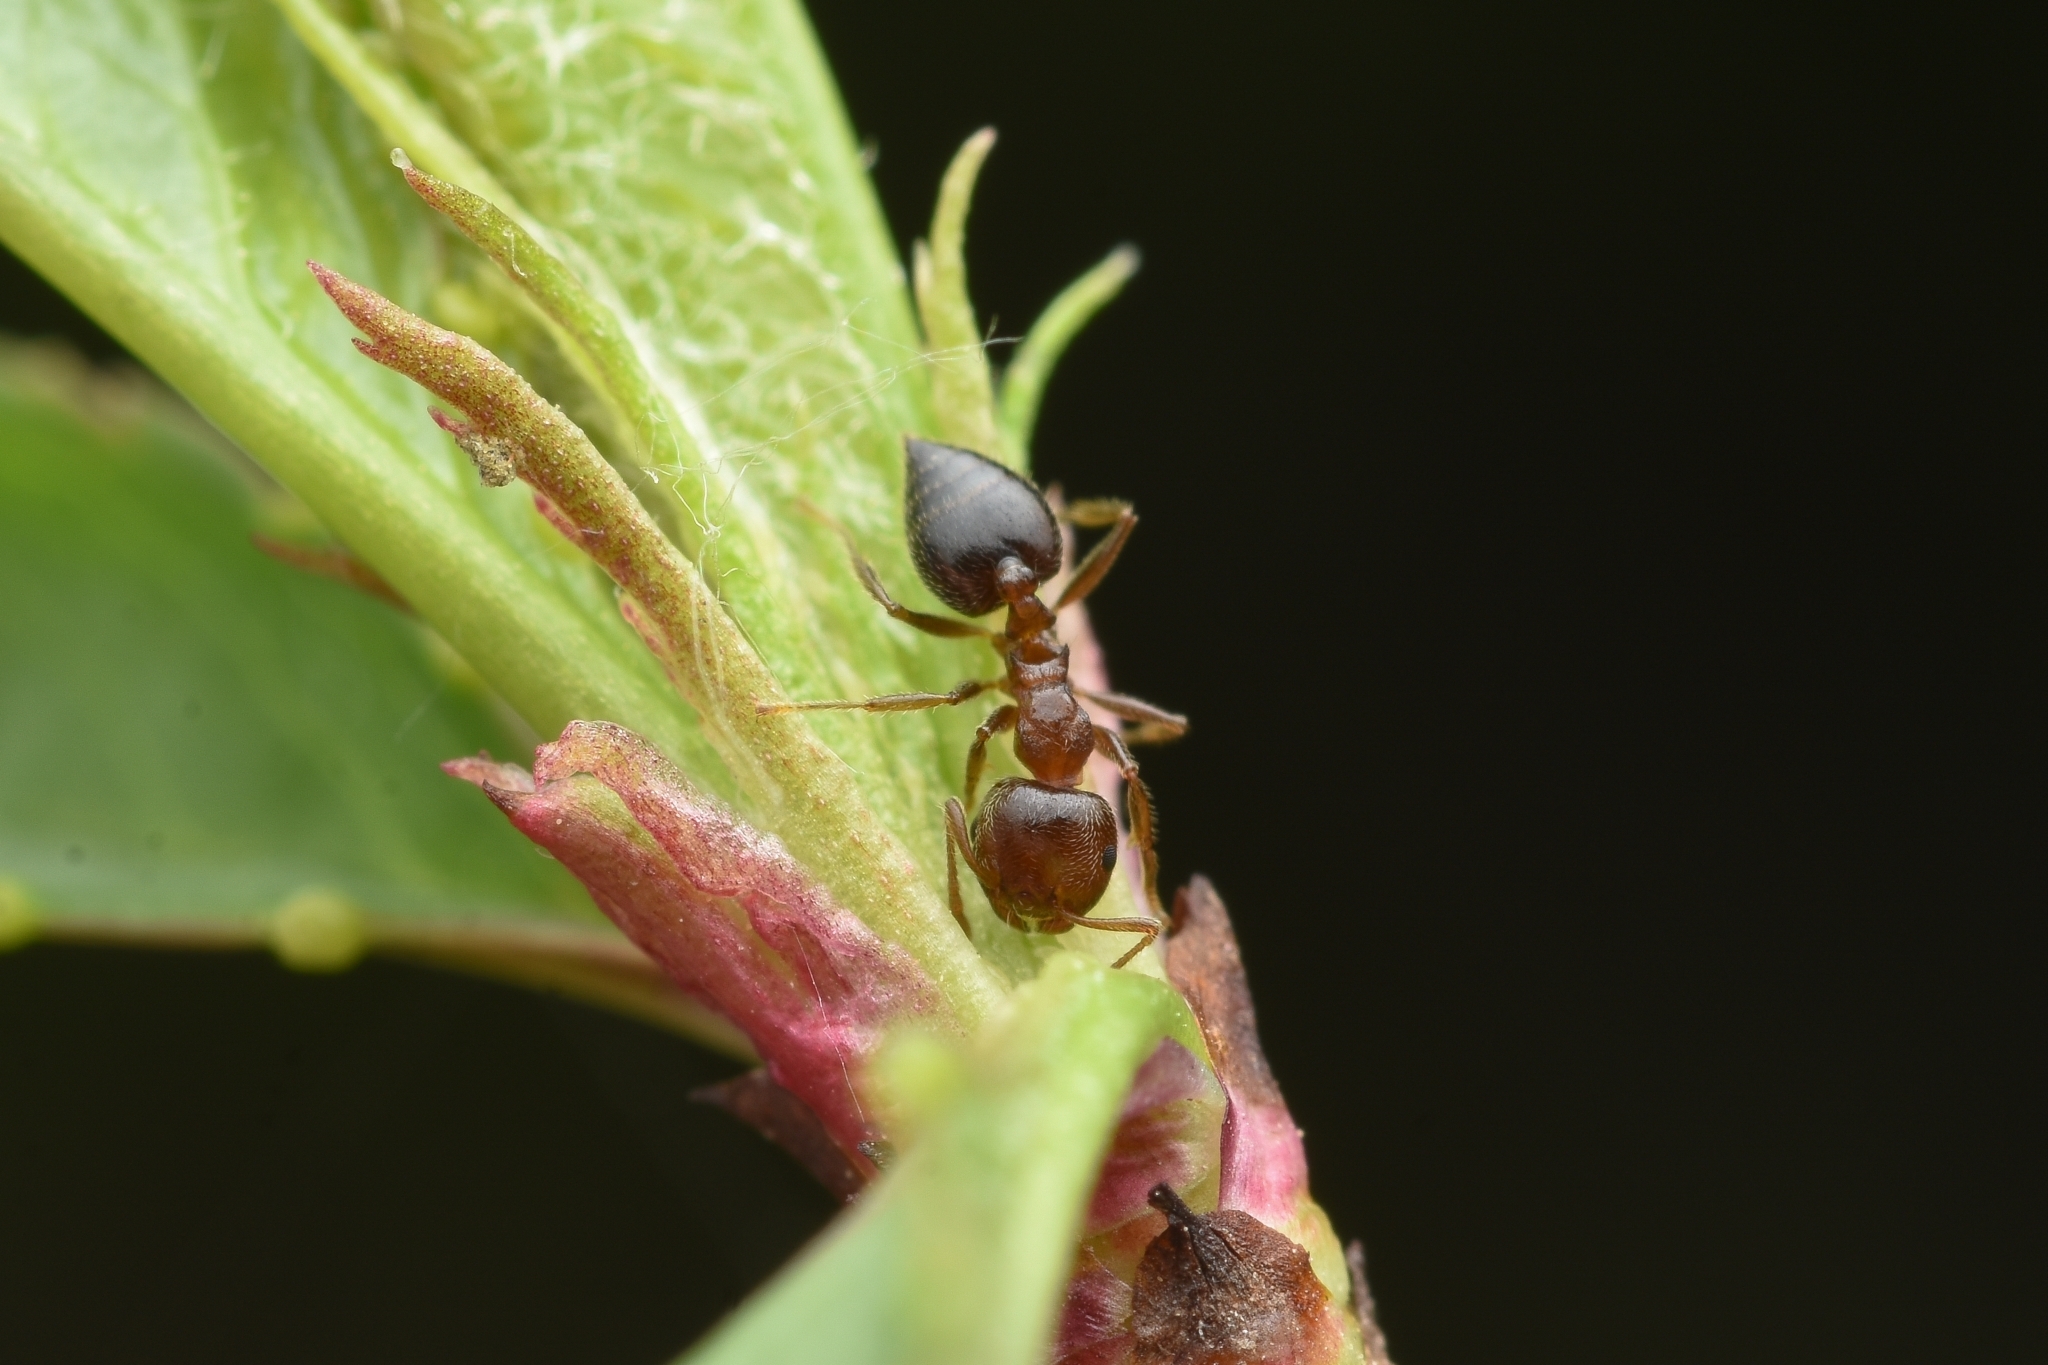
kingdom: Animalia
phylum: Arthropoda
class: Insecta
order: Hymenoptera
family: Formicidae
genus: Crematogaster
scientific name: Crematogaster matsumurai
